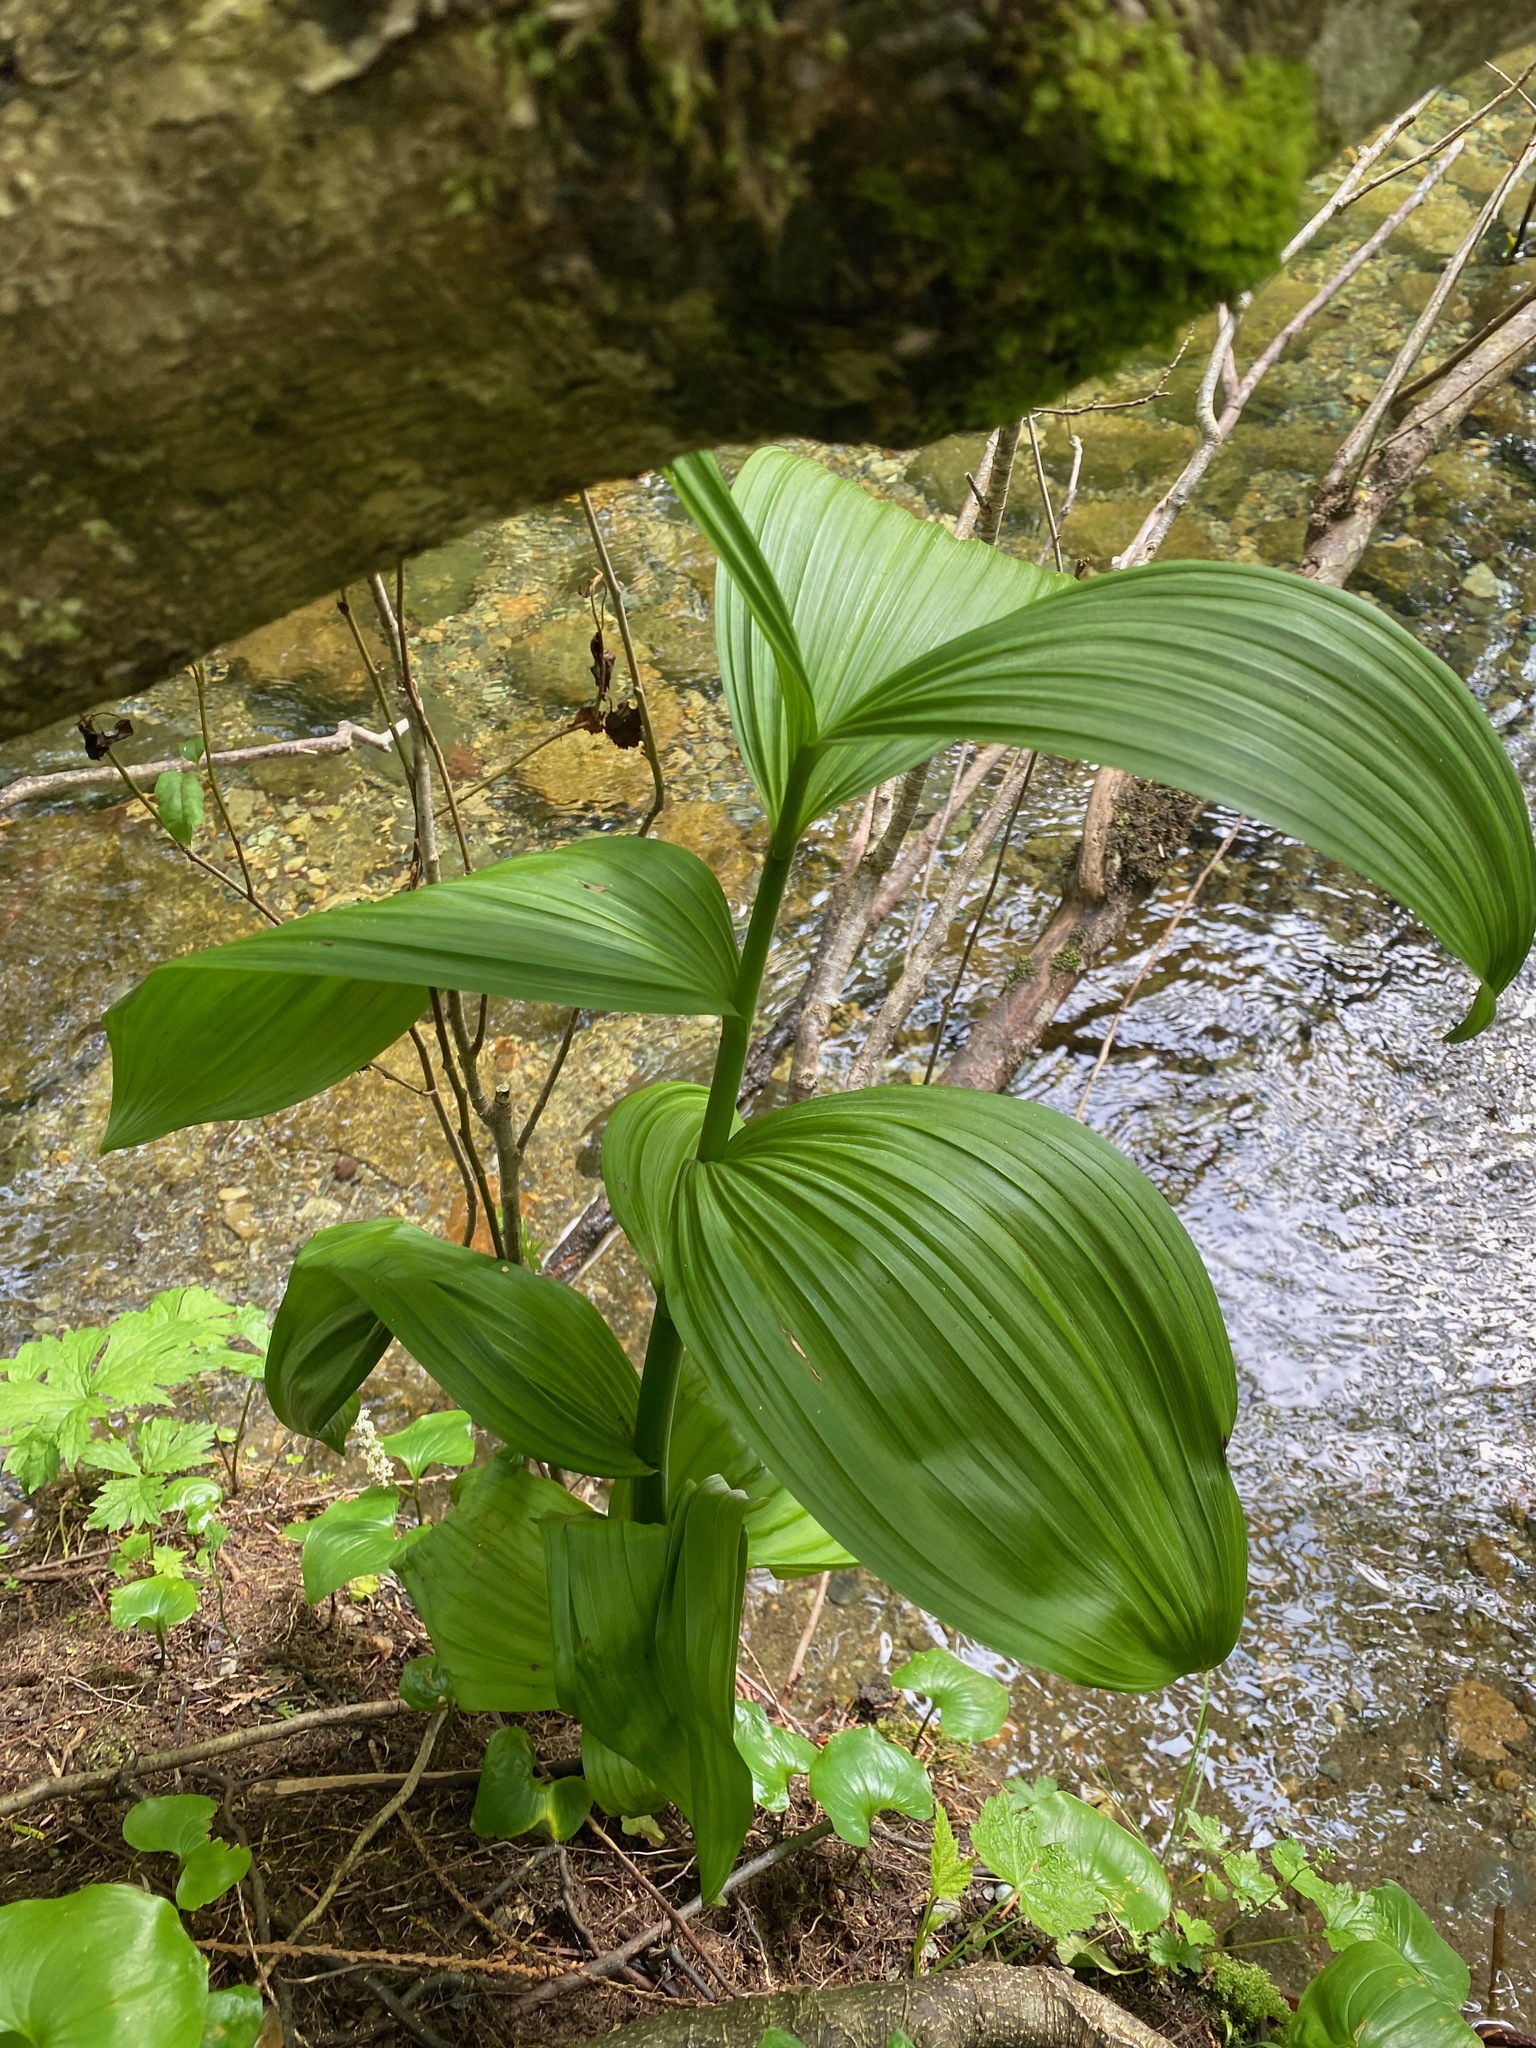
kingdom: Plantae
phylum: Tracheophyta
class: Liliopsida
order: Liliales
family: Melanthiaceae
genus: Veratrum
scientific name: Veratrum viride
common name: American false hellebore
